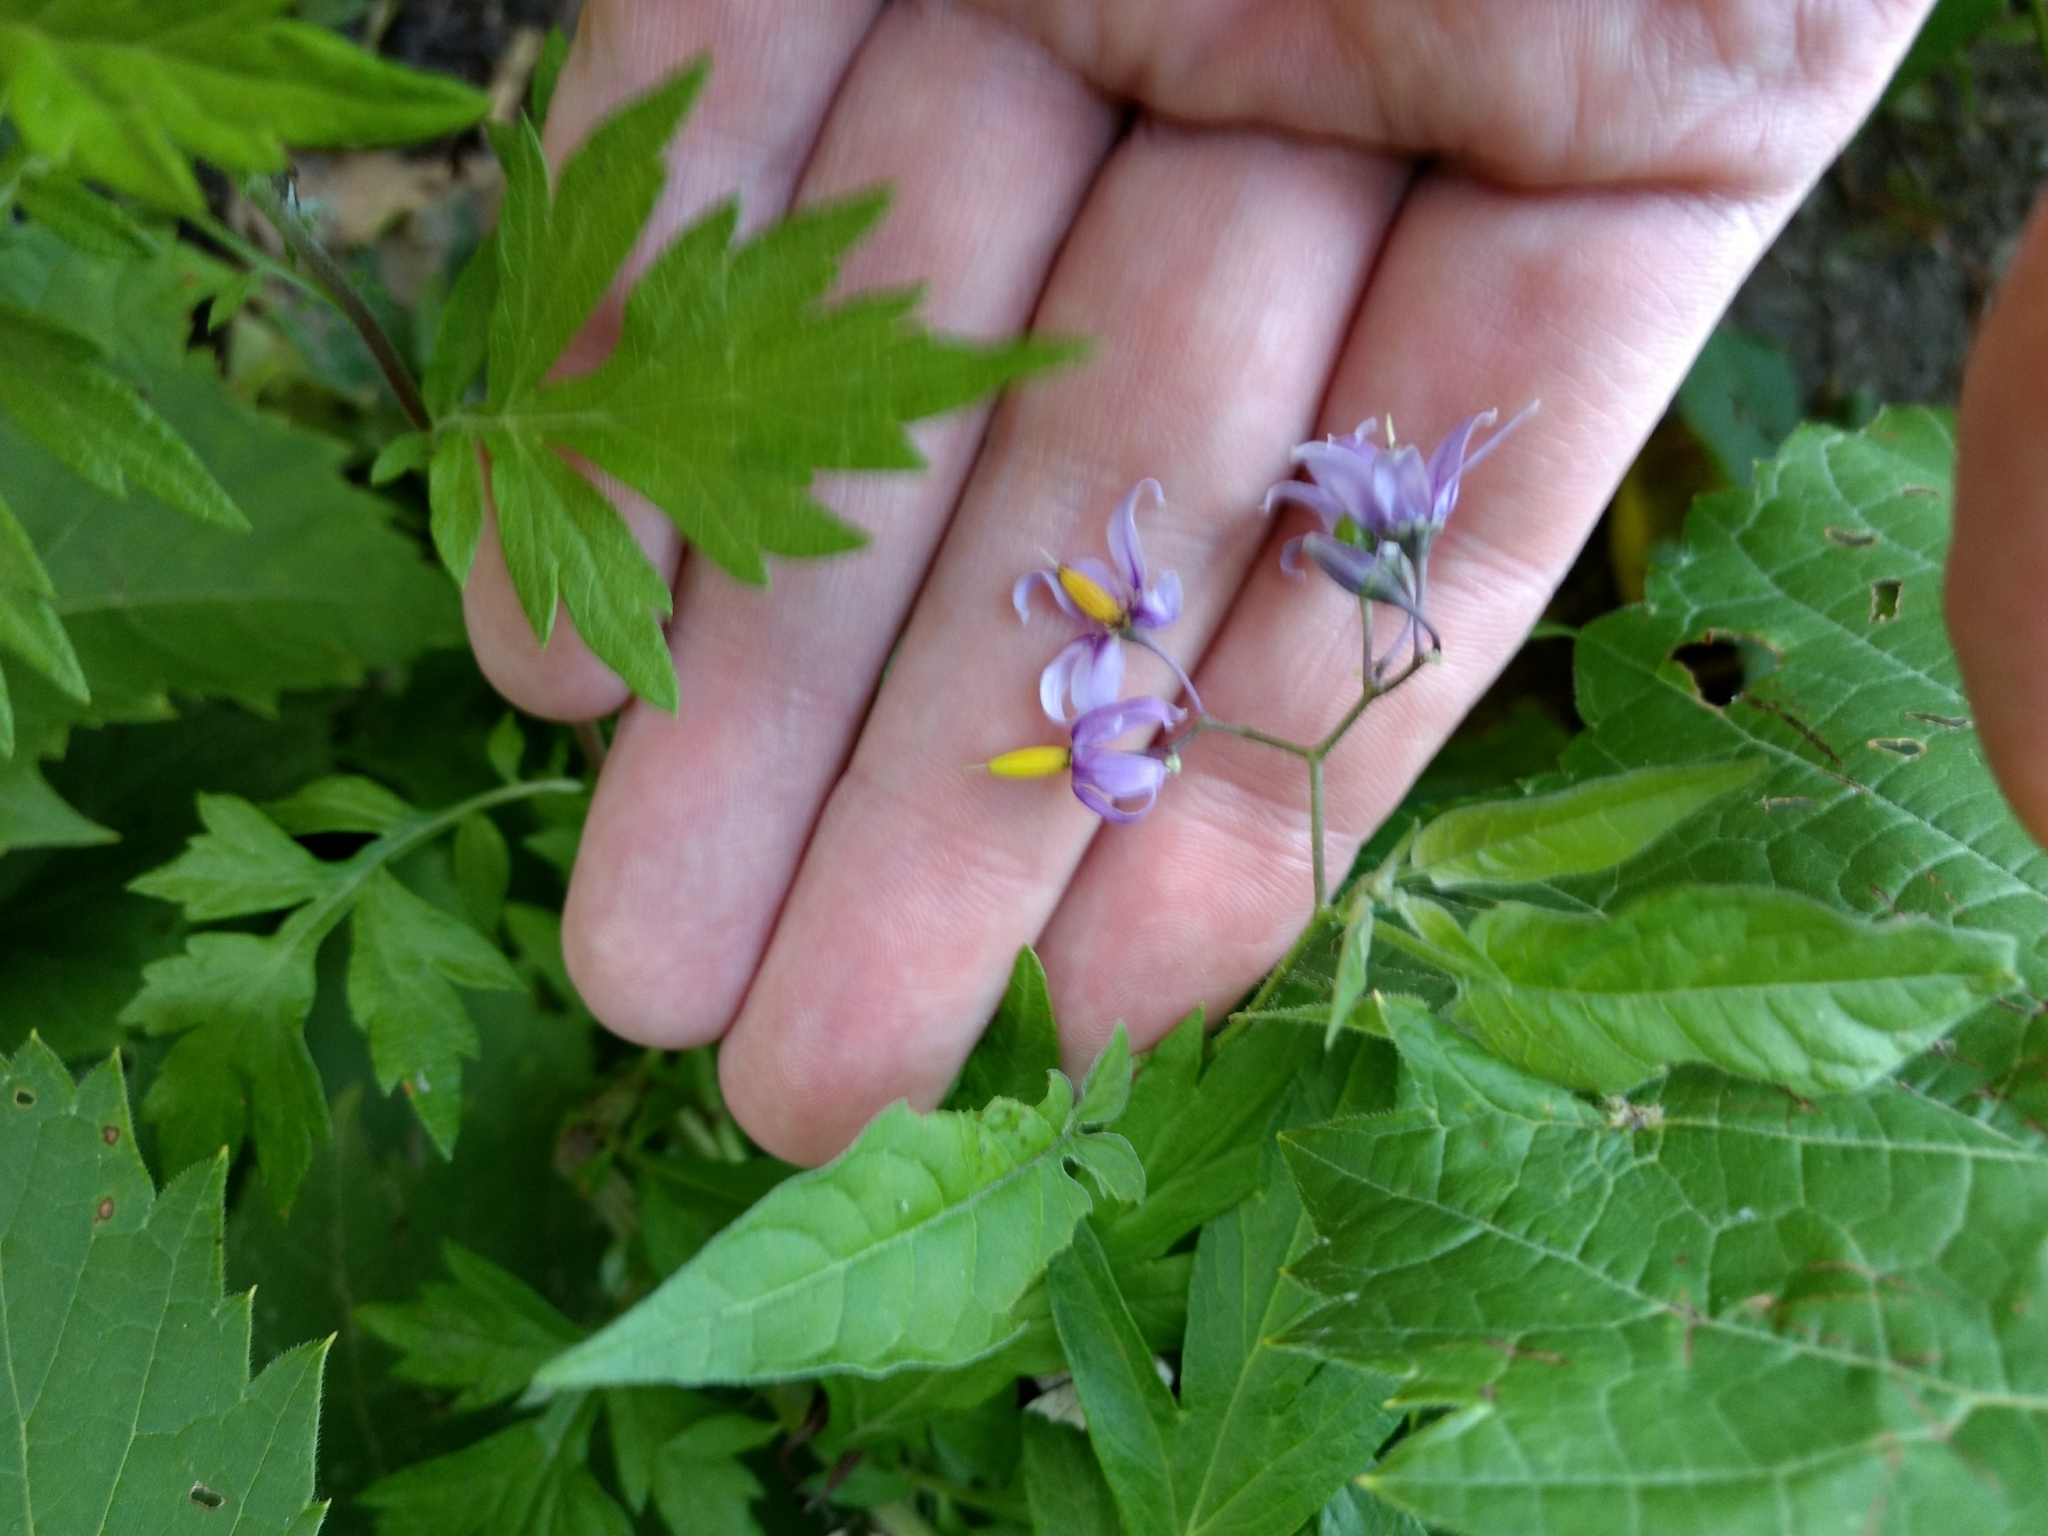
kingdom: Plantae
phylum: Tracheophyta
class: Magnoliopsida
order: Solanales
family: Solanaceae
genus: Solanum
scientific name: Solanum dulcamara
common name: Climbing nightshade
